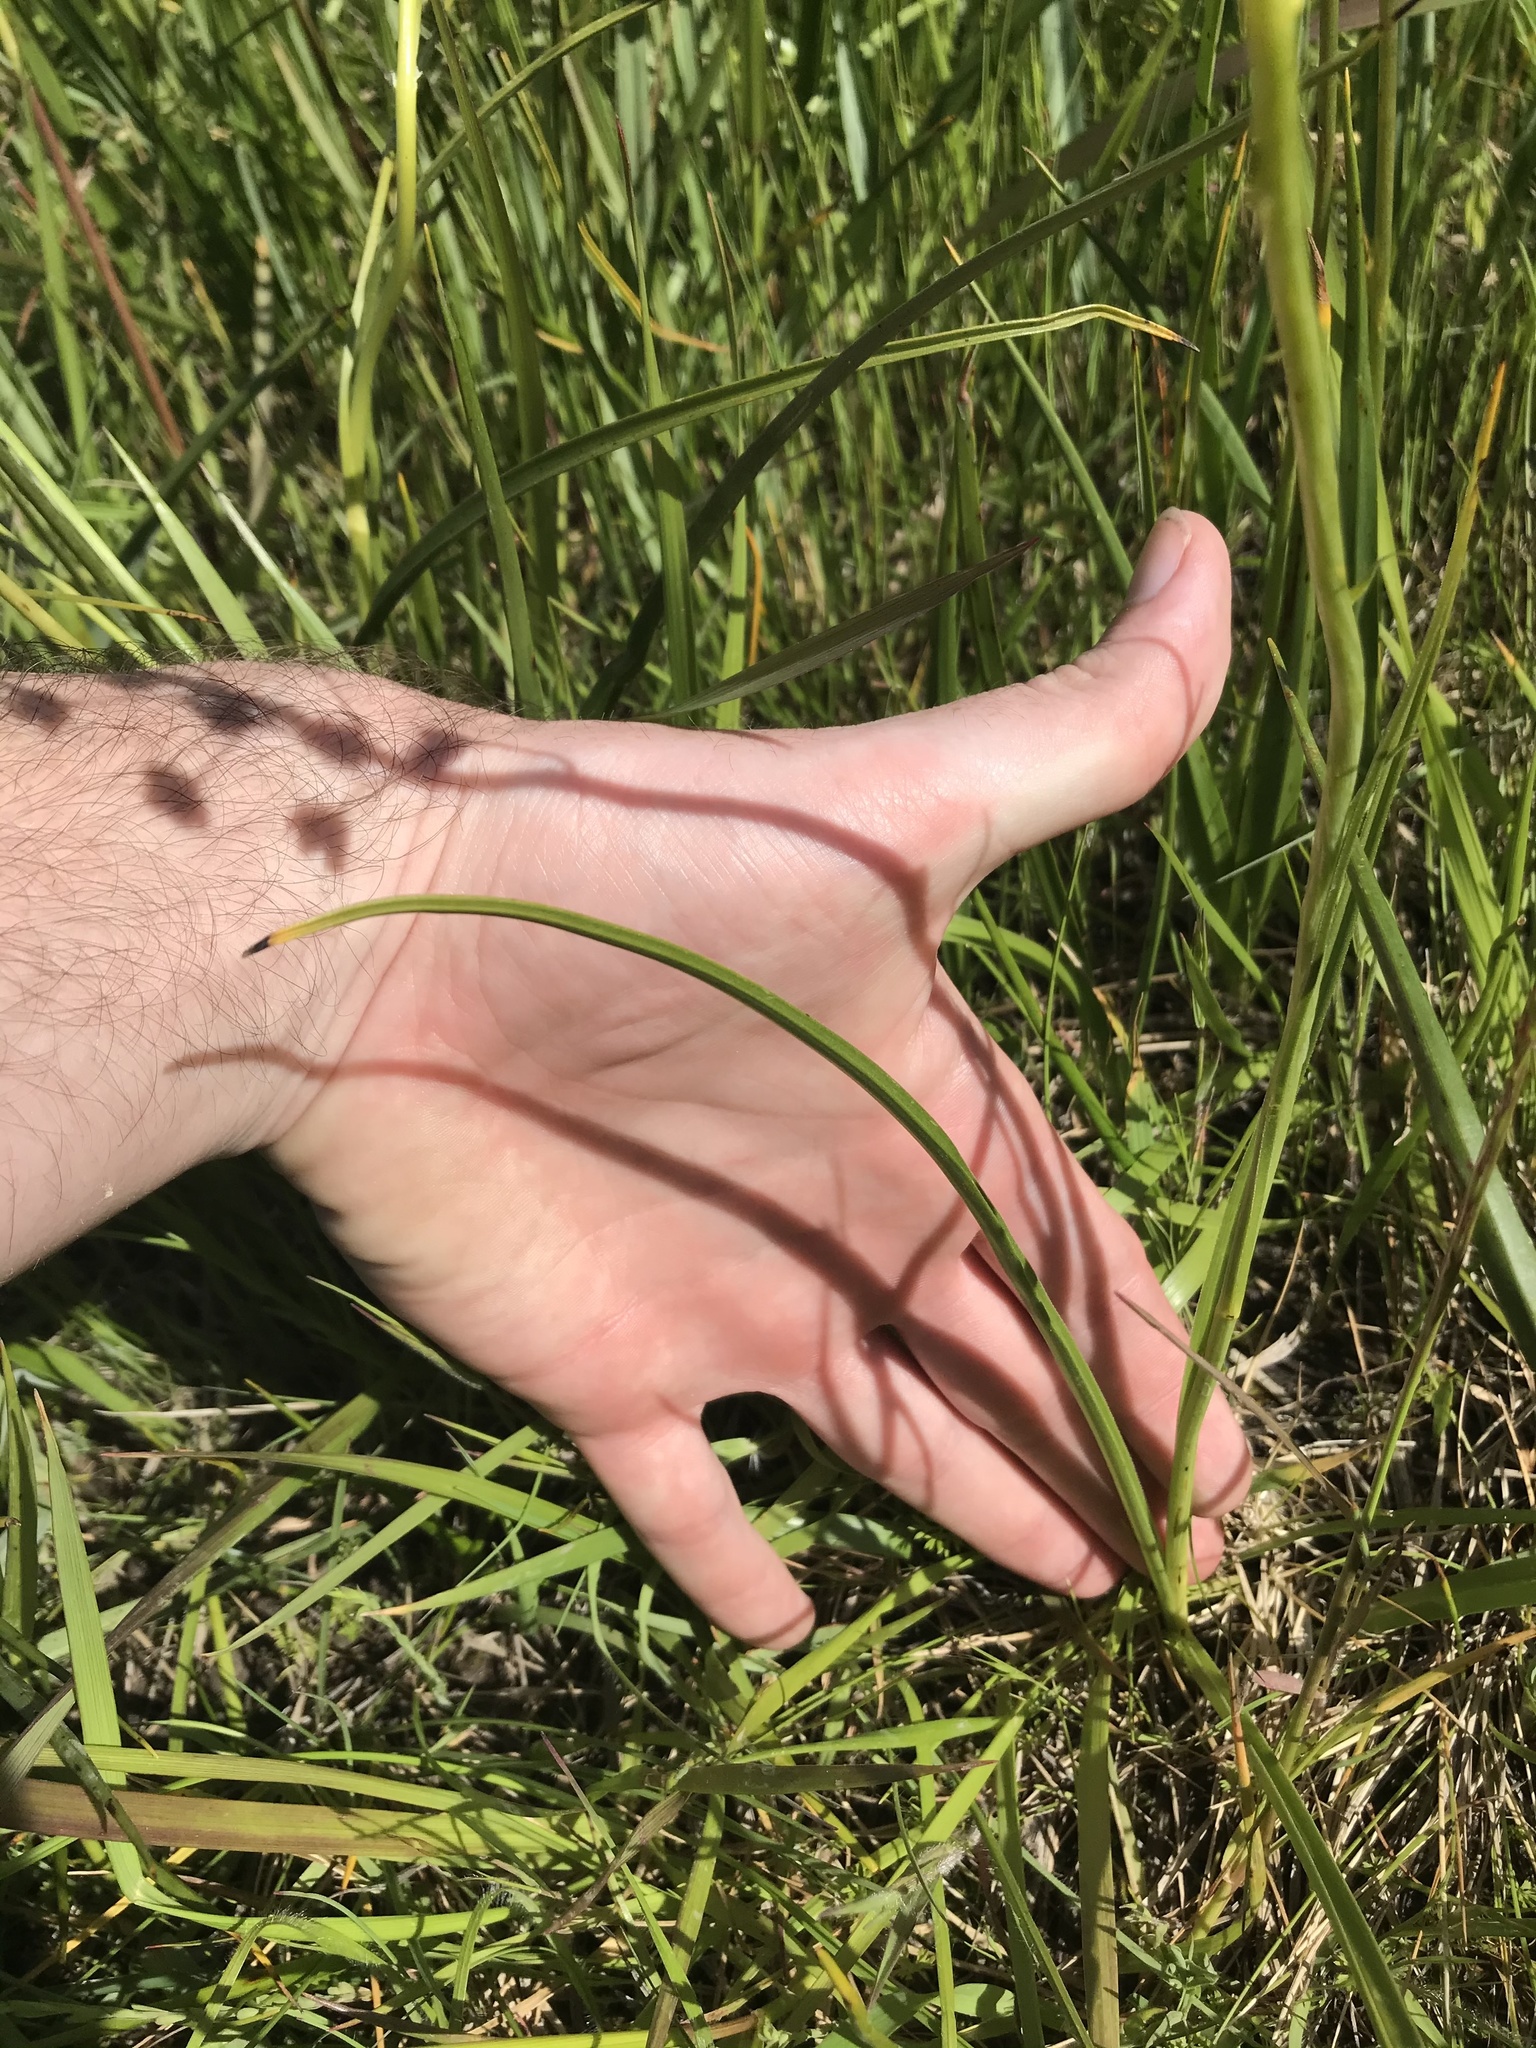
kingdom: Plantae
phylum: Tracheophyta
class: Liliopsida
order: Liliales
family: Melanthiaceae
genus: Toxicoscordion
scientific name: Toxicoscordion venenosum
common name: Meadow death camas
